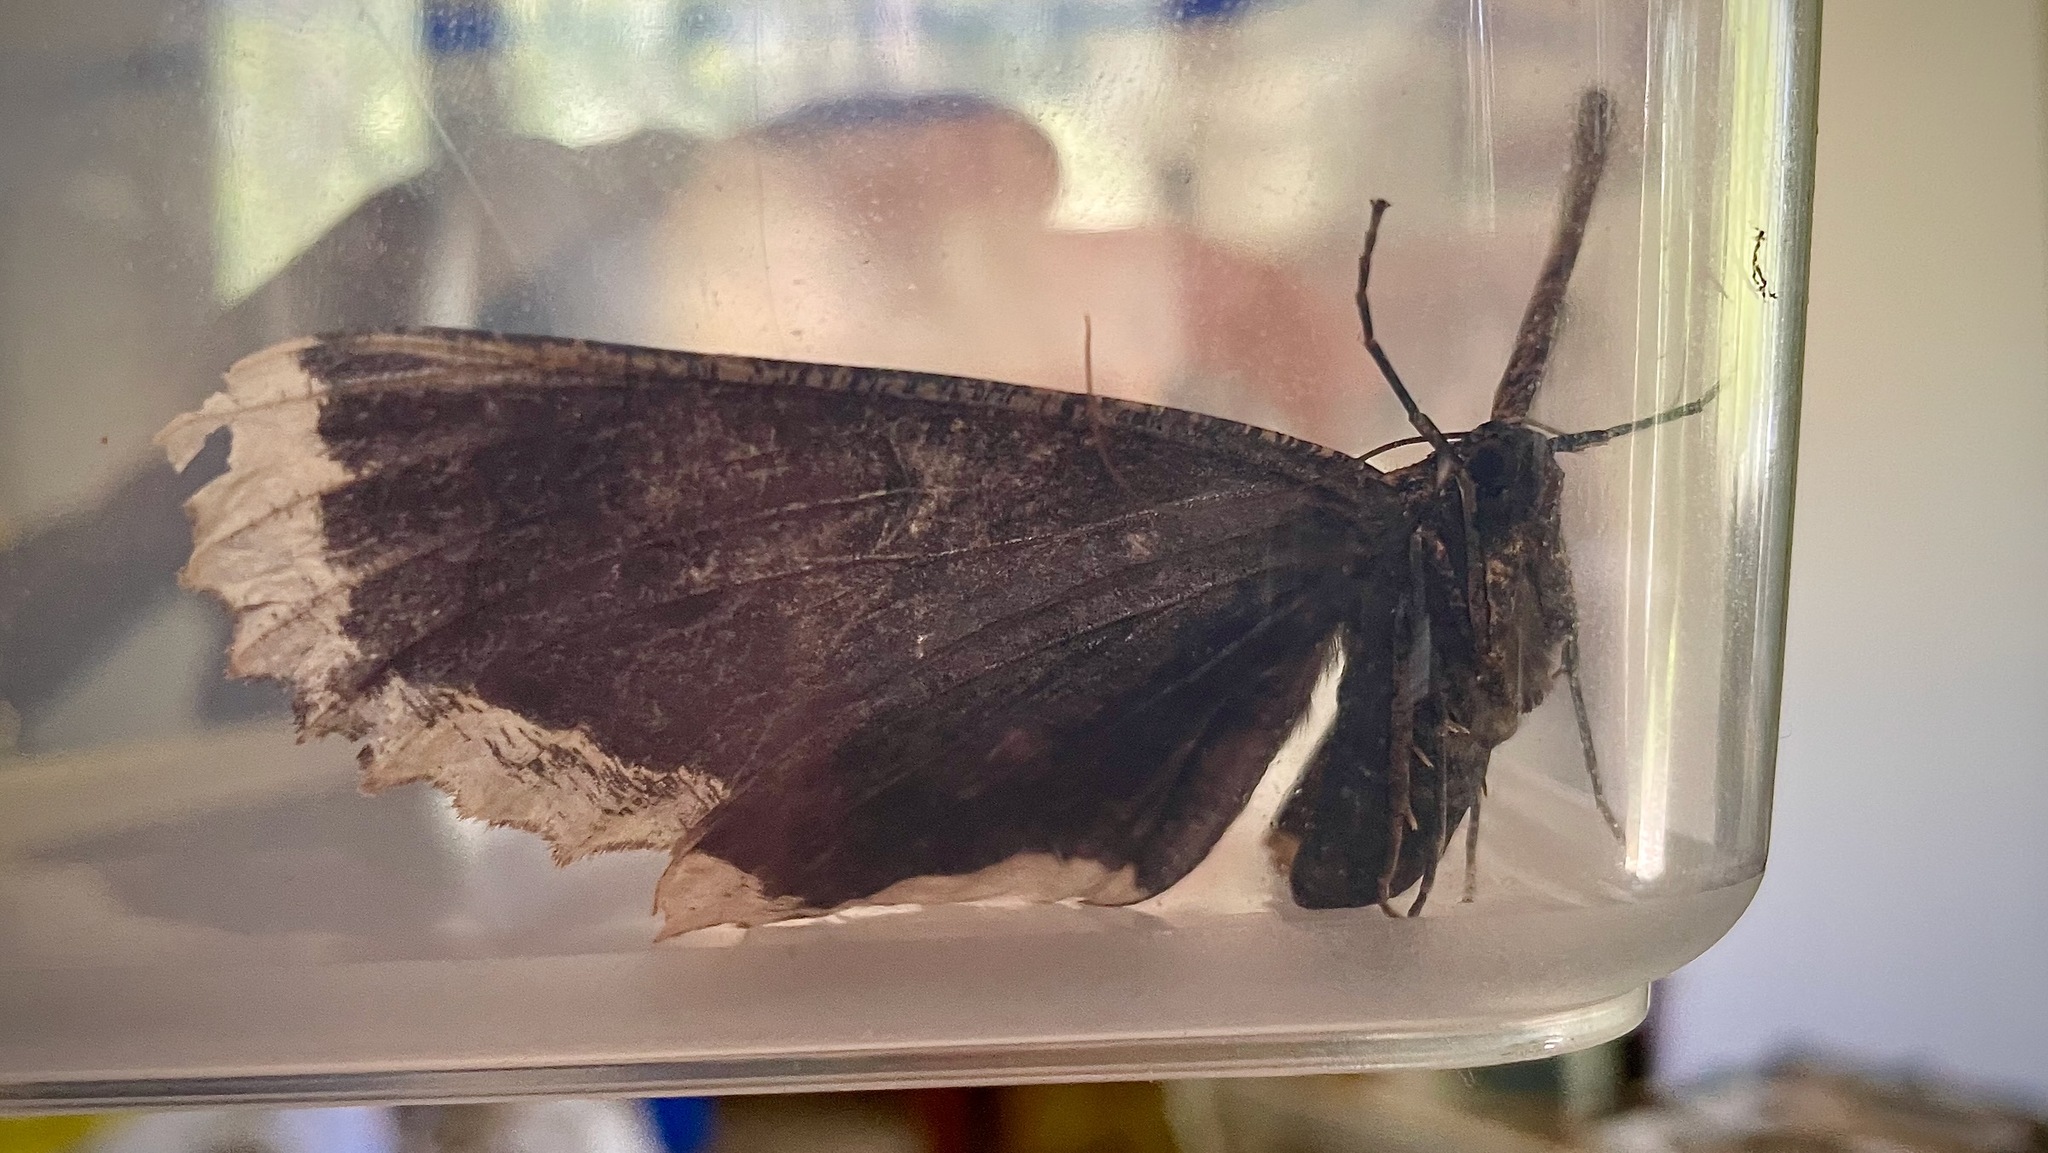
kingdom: Animalia
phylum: Arthropoda
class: Insecta
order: Lepidoptera
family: Geometridae
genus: Chorodna
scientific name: Chorodna strixaria
